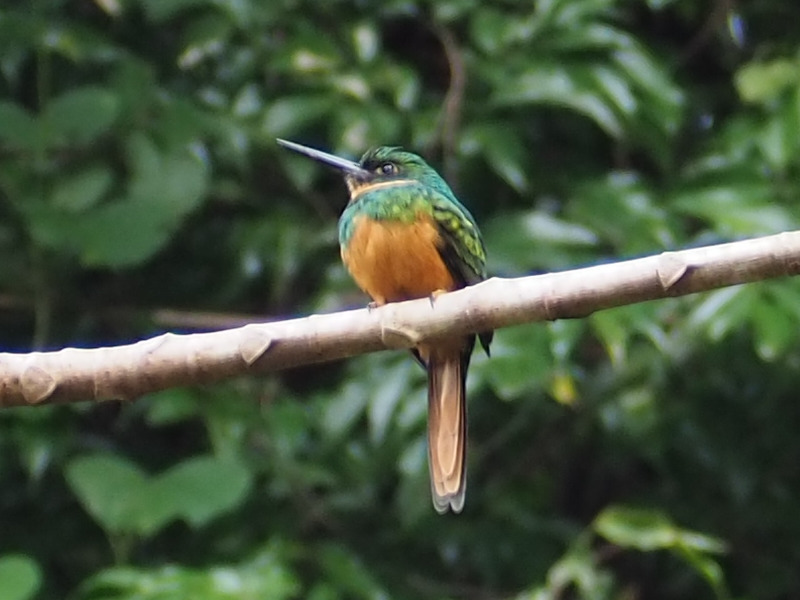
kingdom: Animalia
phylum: Chordata
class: Aves
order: Piciformes
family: Galbulidae
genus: Galbula
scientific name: Galbula ruficauda
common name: Rufous-tailed jacamar
